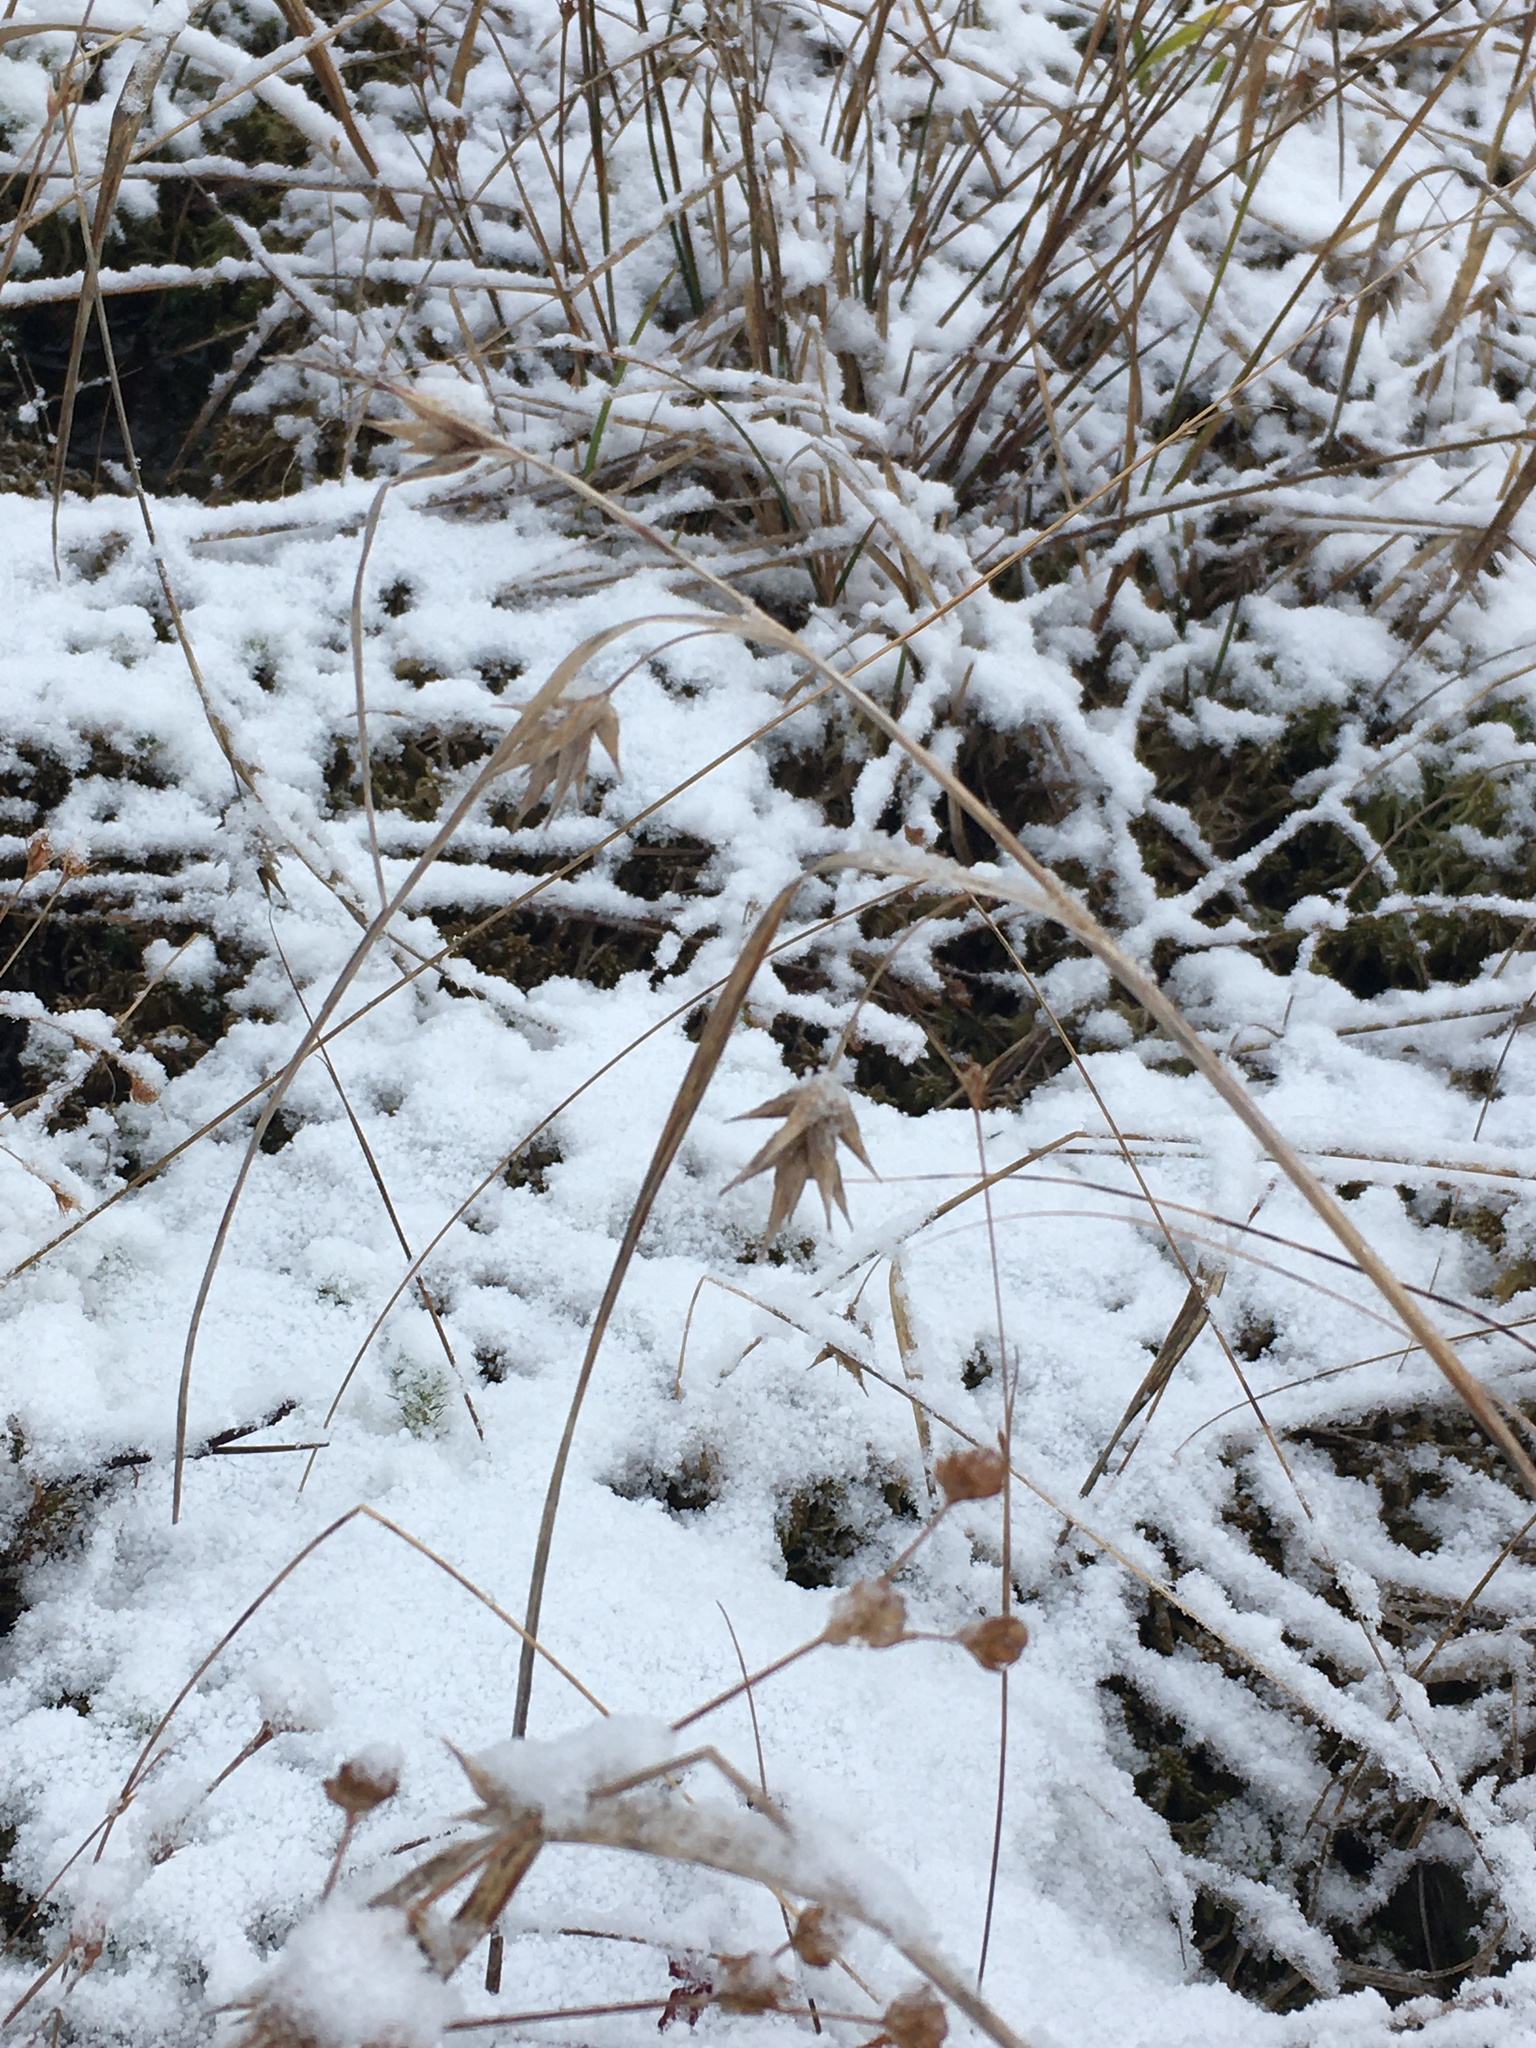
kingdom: Plantae
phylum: Tracheophyta
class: Liliopsida
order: Poales
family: Cyperaceae
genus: Carex
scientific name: Carex folliculata
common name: Northern long sedge
